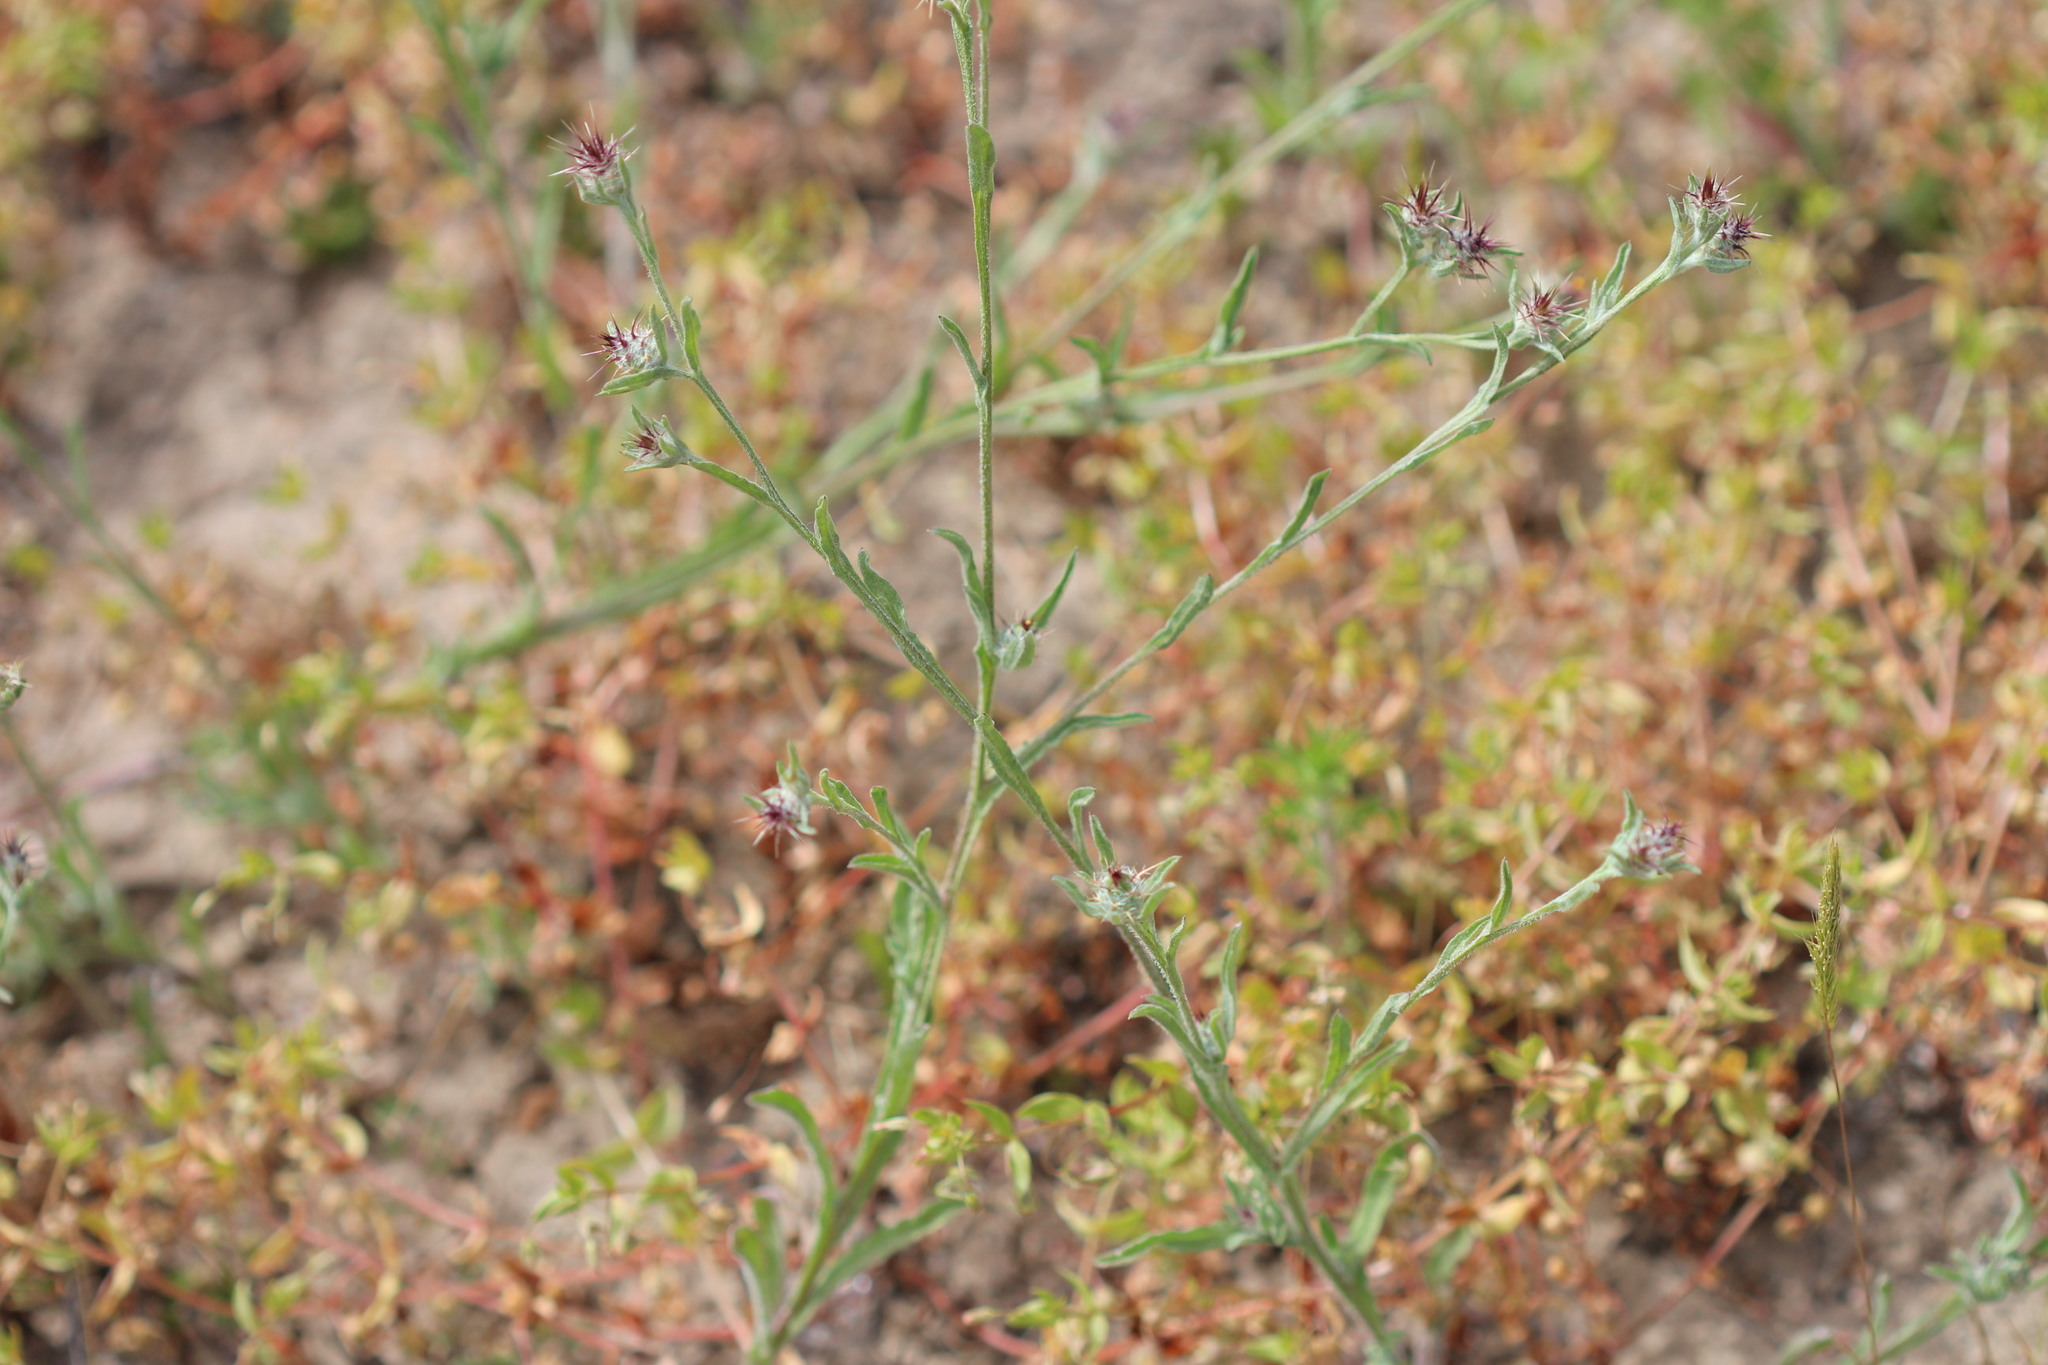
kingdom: Plantae
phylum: Tracheophyta
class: Magnoliopsida
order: Asterales
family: Asteraceae
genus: Centaurea
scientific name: Centaurea melitensis
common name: Maltese star-thistle
